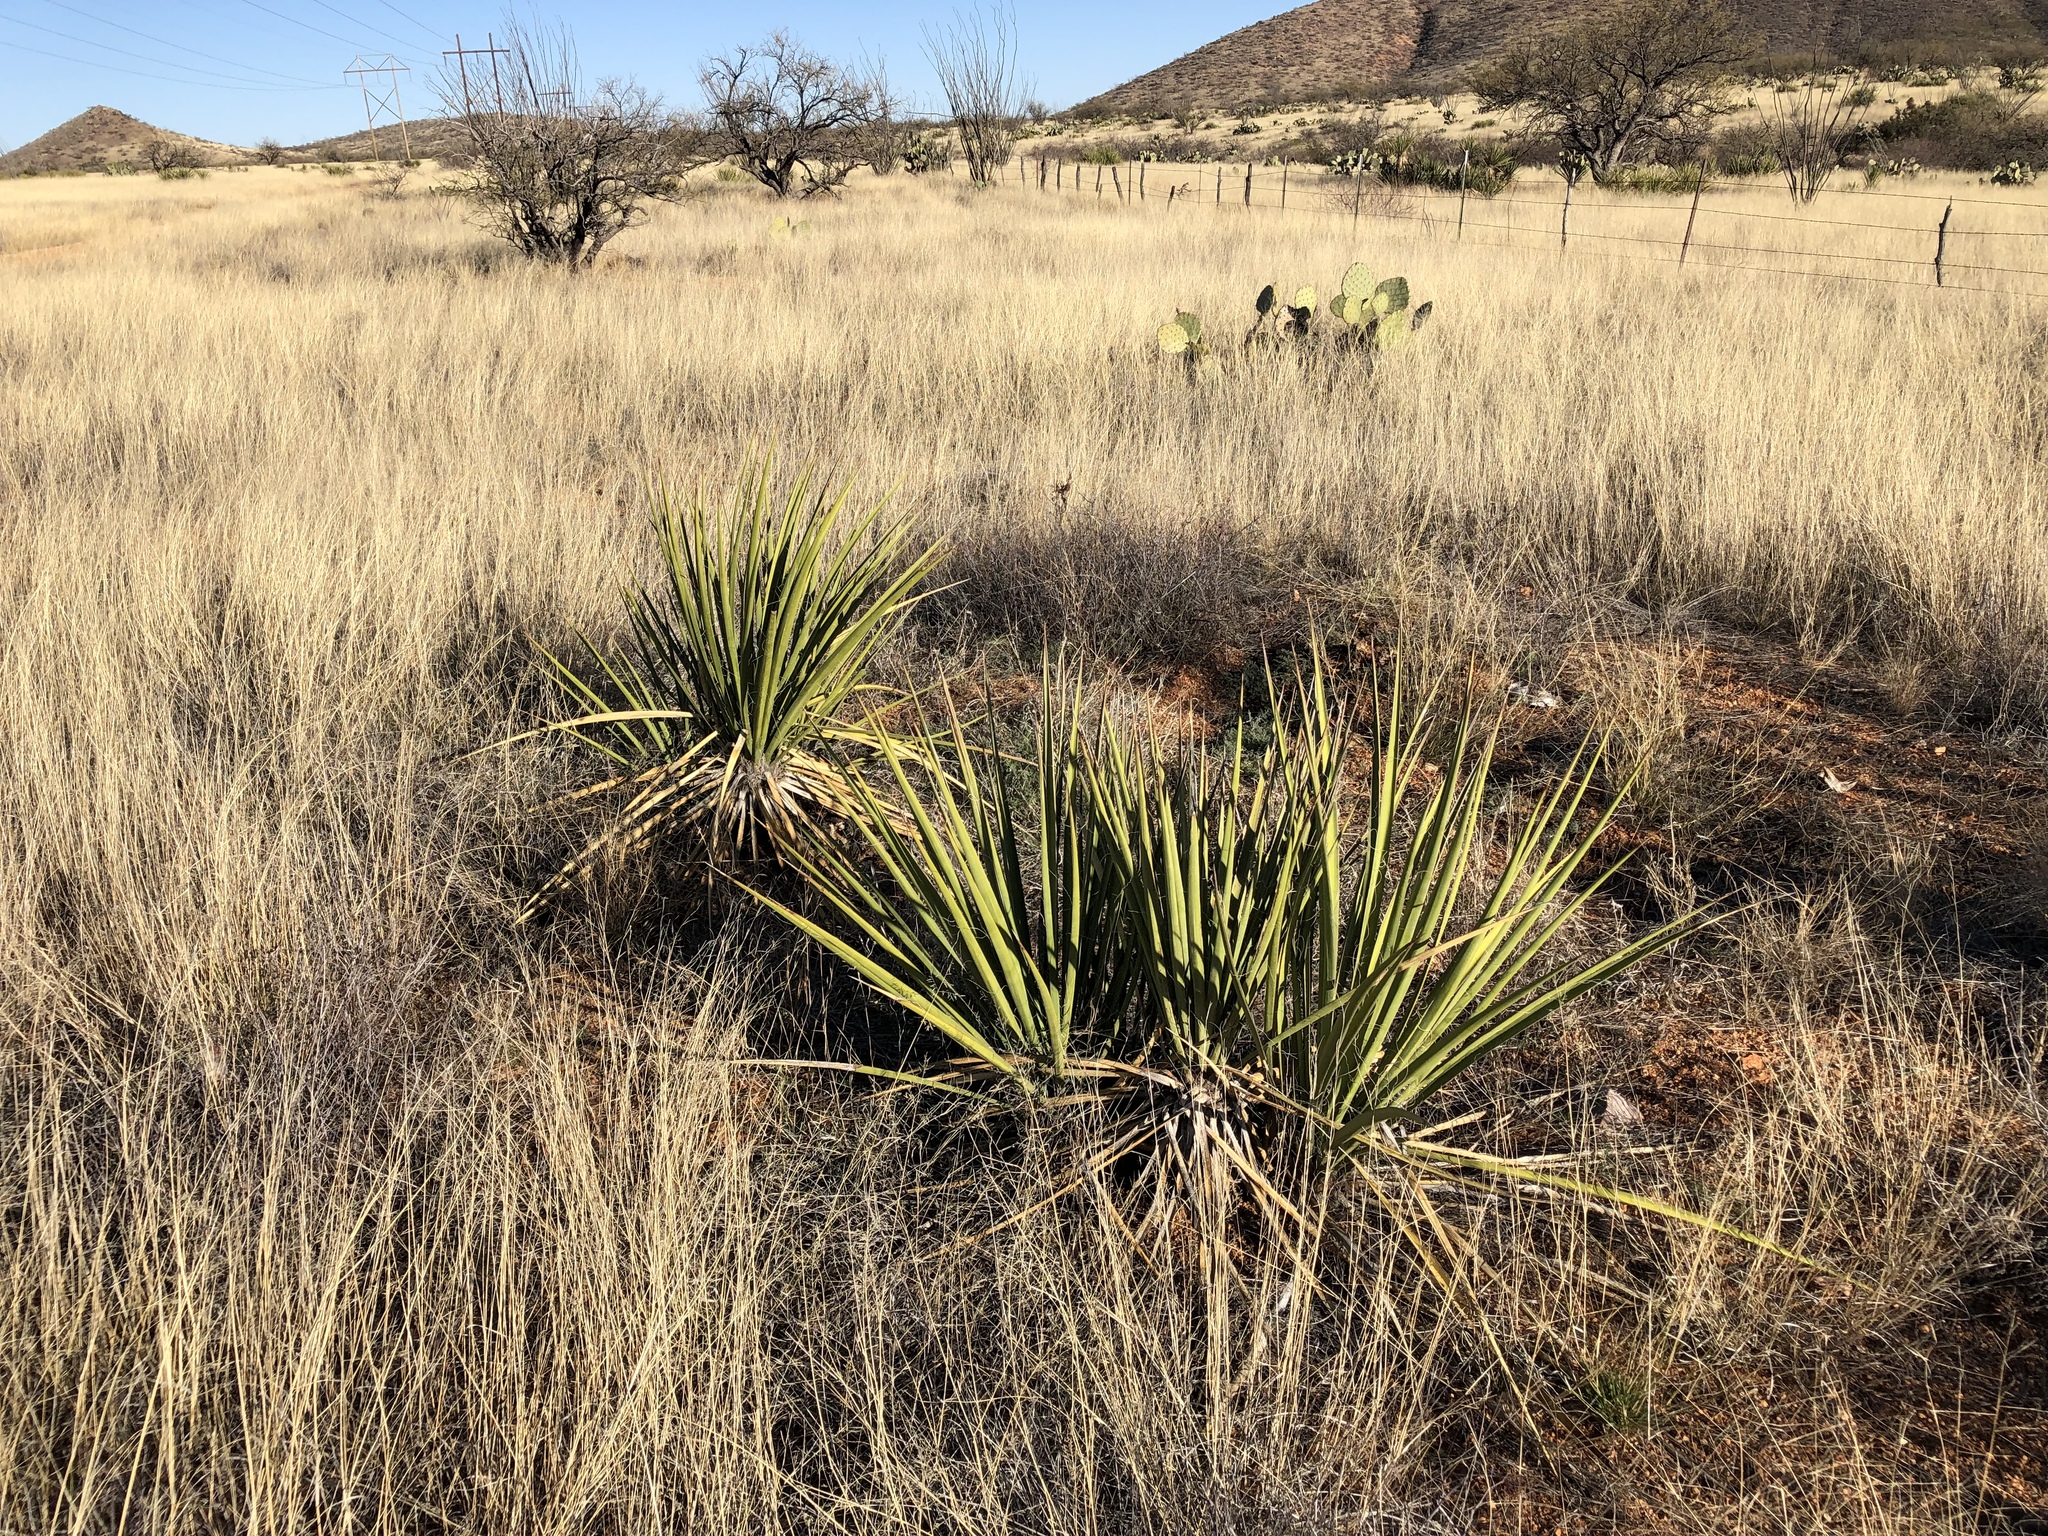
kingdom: Plantae
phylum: Tracheophyta
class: Liliopsida
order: Asparagales
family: Asparagaceae
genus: Yucca
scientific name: Yucca baccata
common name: Banana yucca
